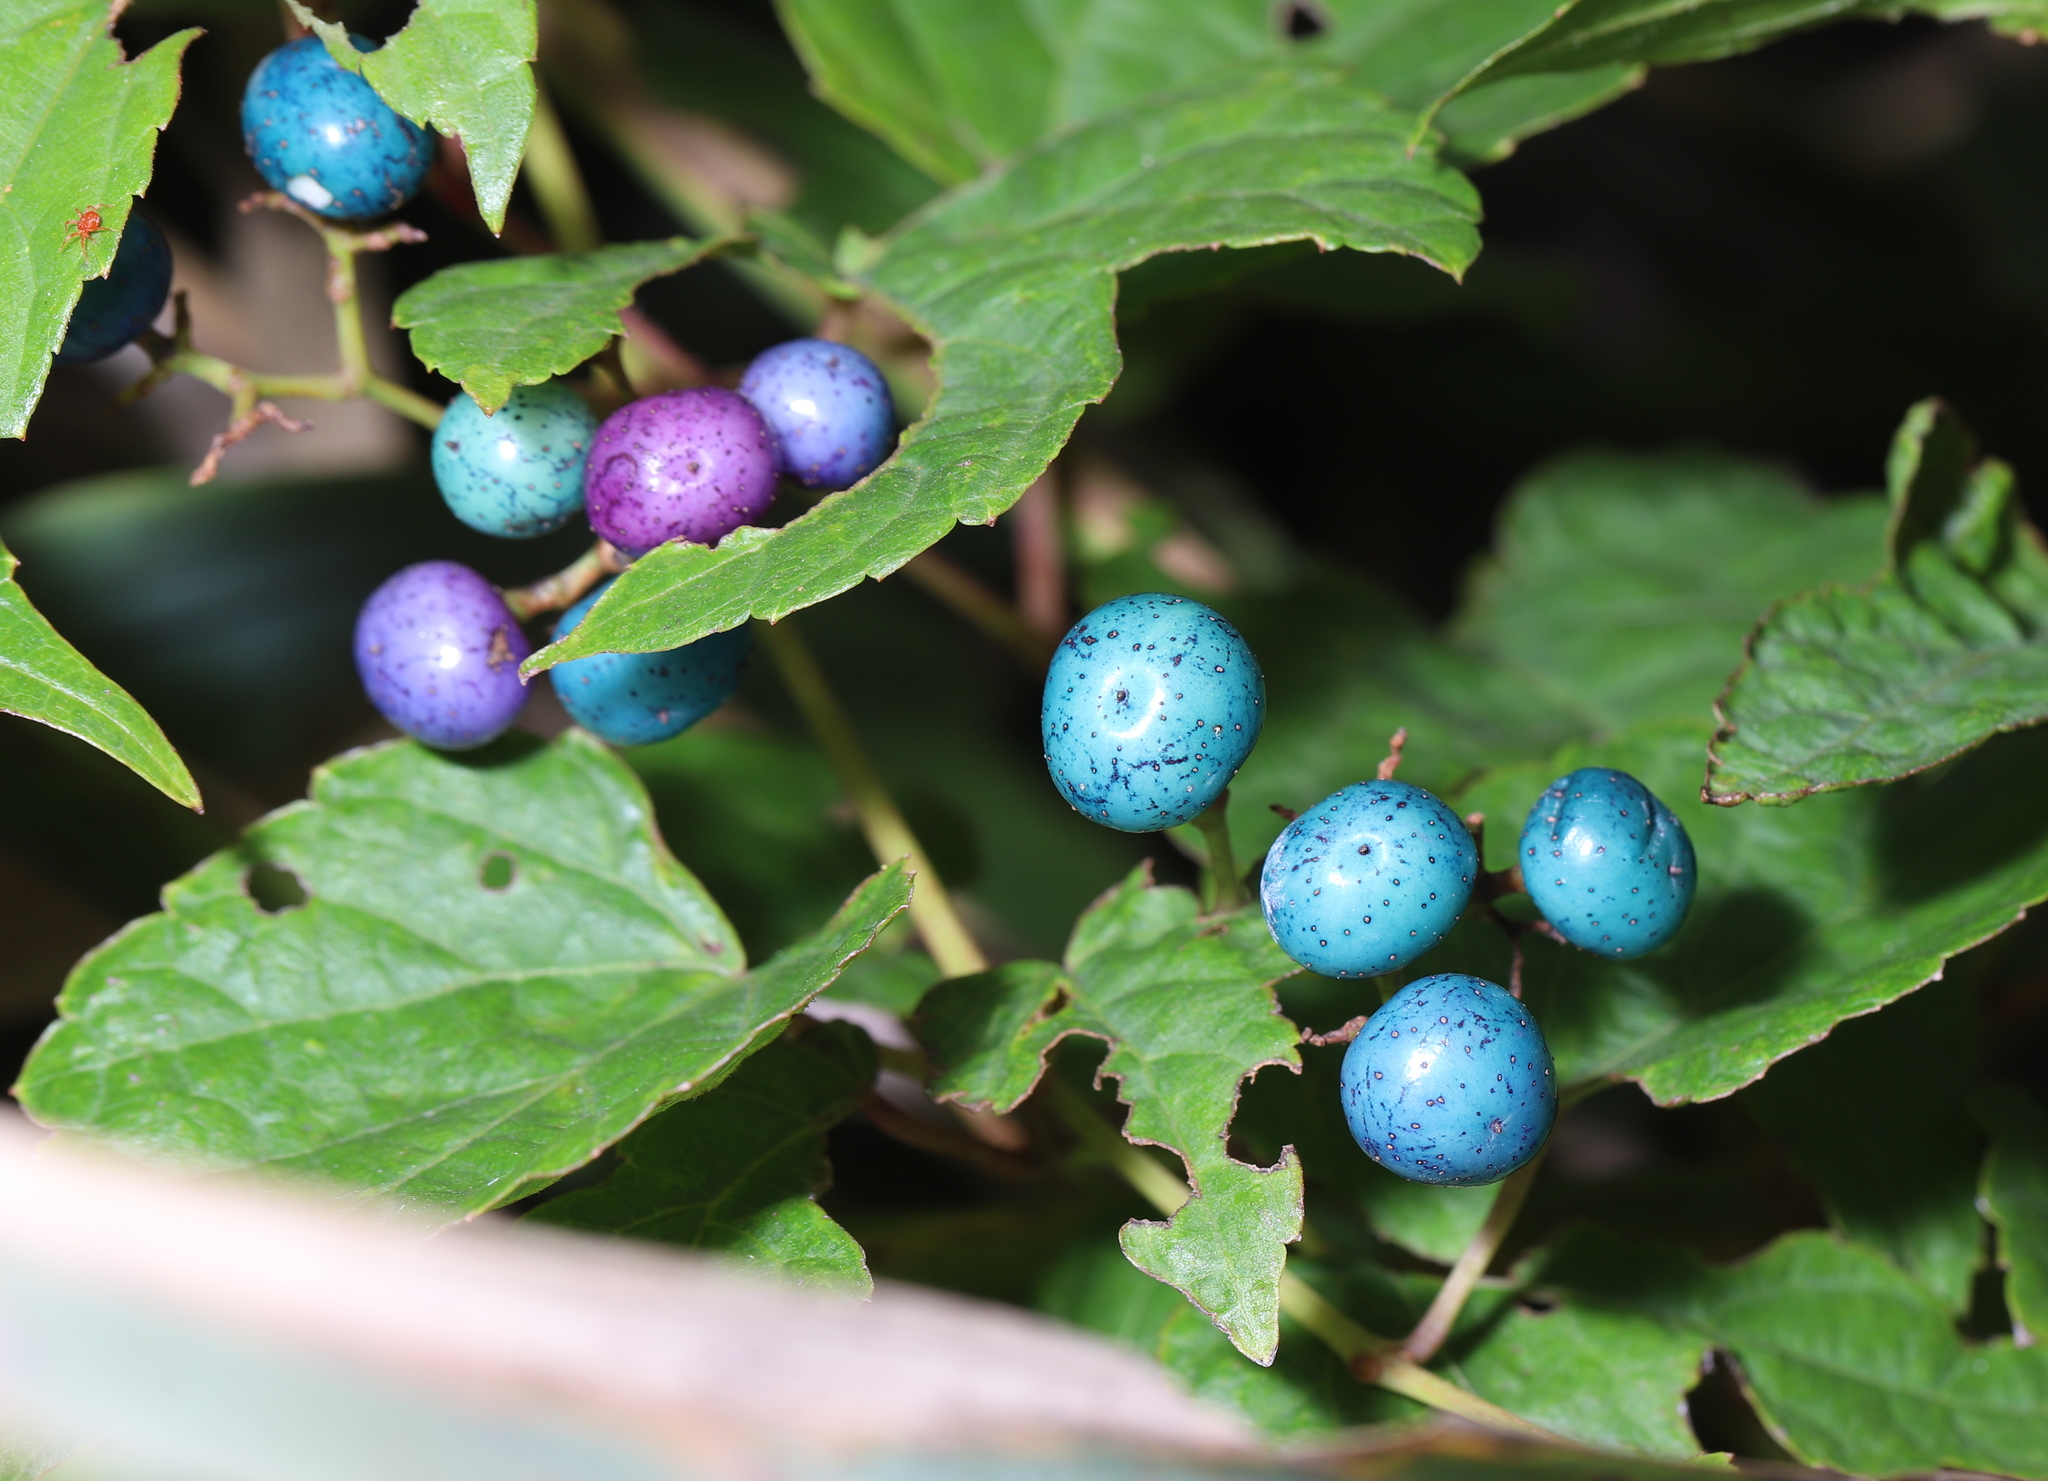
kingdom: Plantae
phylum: Tracheophyta
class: Magnoliopsida
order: Vitales
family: Vitaceae
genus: Ampelopsis
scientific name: Ampelopsis glandulosa
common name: Amur peppervine
